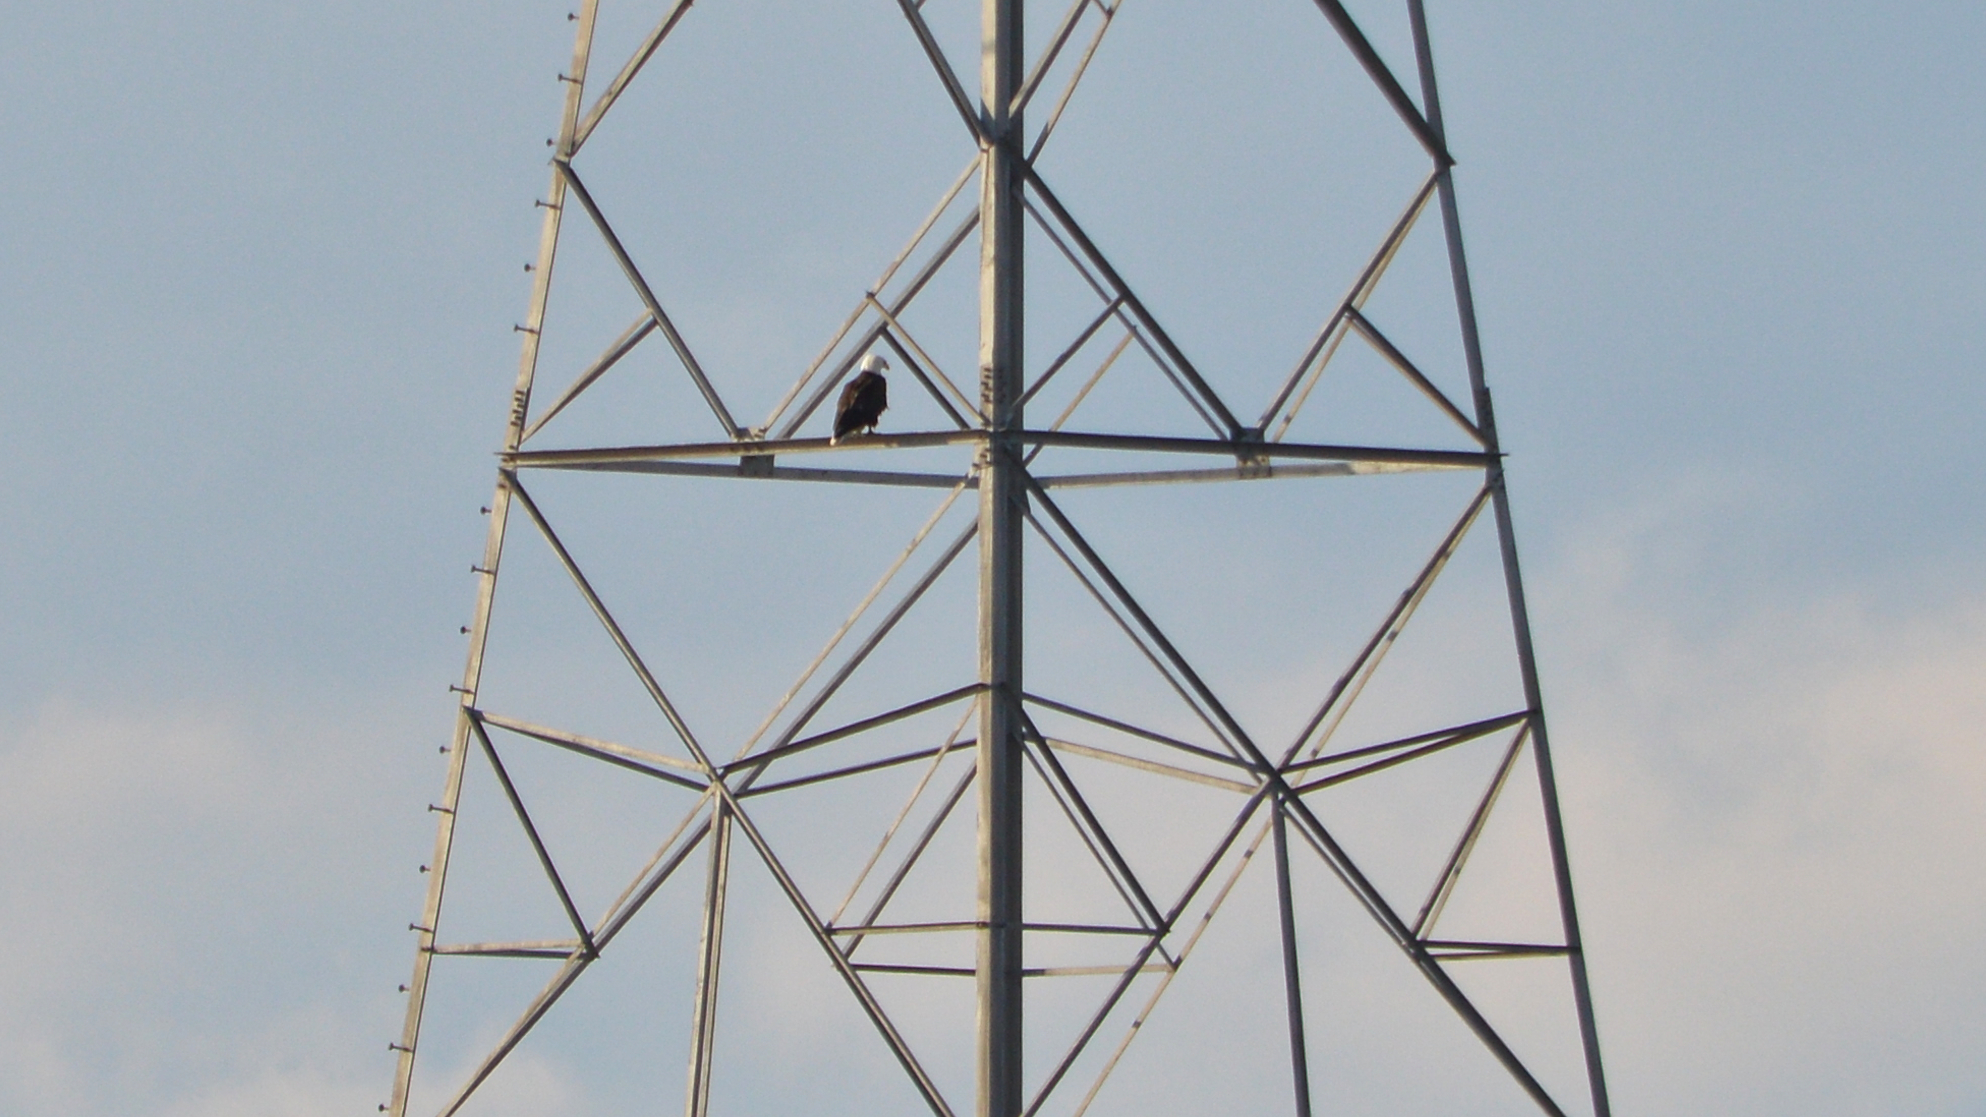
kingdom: Animalia
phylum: Chordata
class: Aves
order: Accipitriformes
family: Accipitridae
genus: Haliaeetus
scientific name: Haliaeetus leucocephalus
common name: Bald eagle
